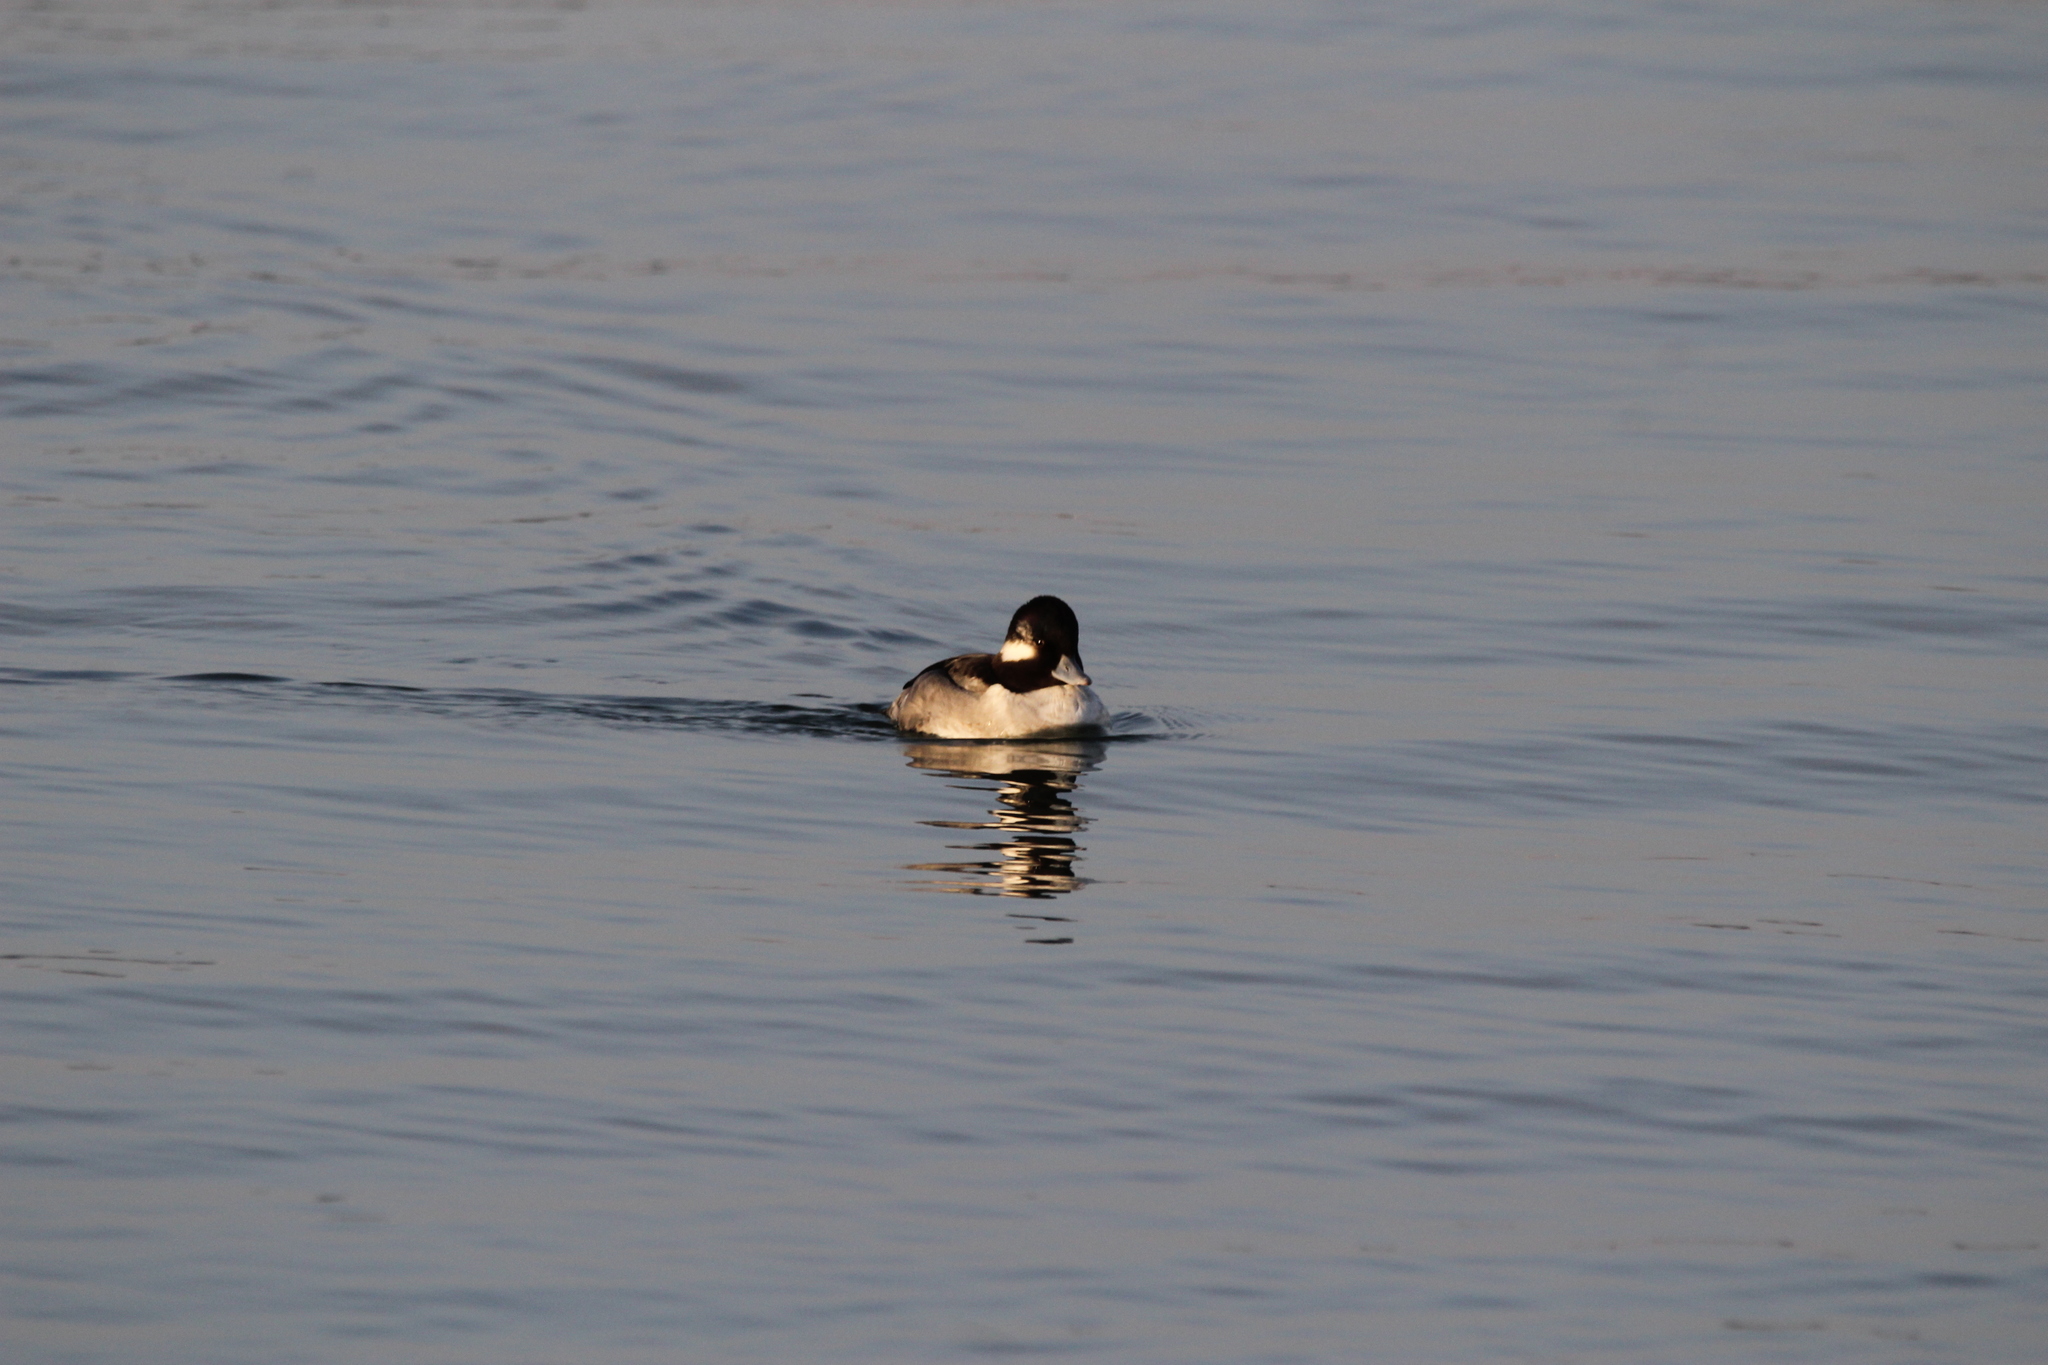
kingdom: Animalia
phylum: Chordata
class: Aves
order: Anseriformes
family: Anatidae
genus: Bucephala
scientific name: Bucephala albeola
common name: Bufflehead
